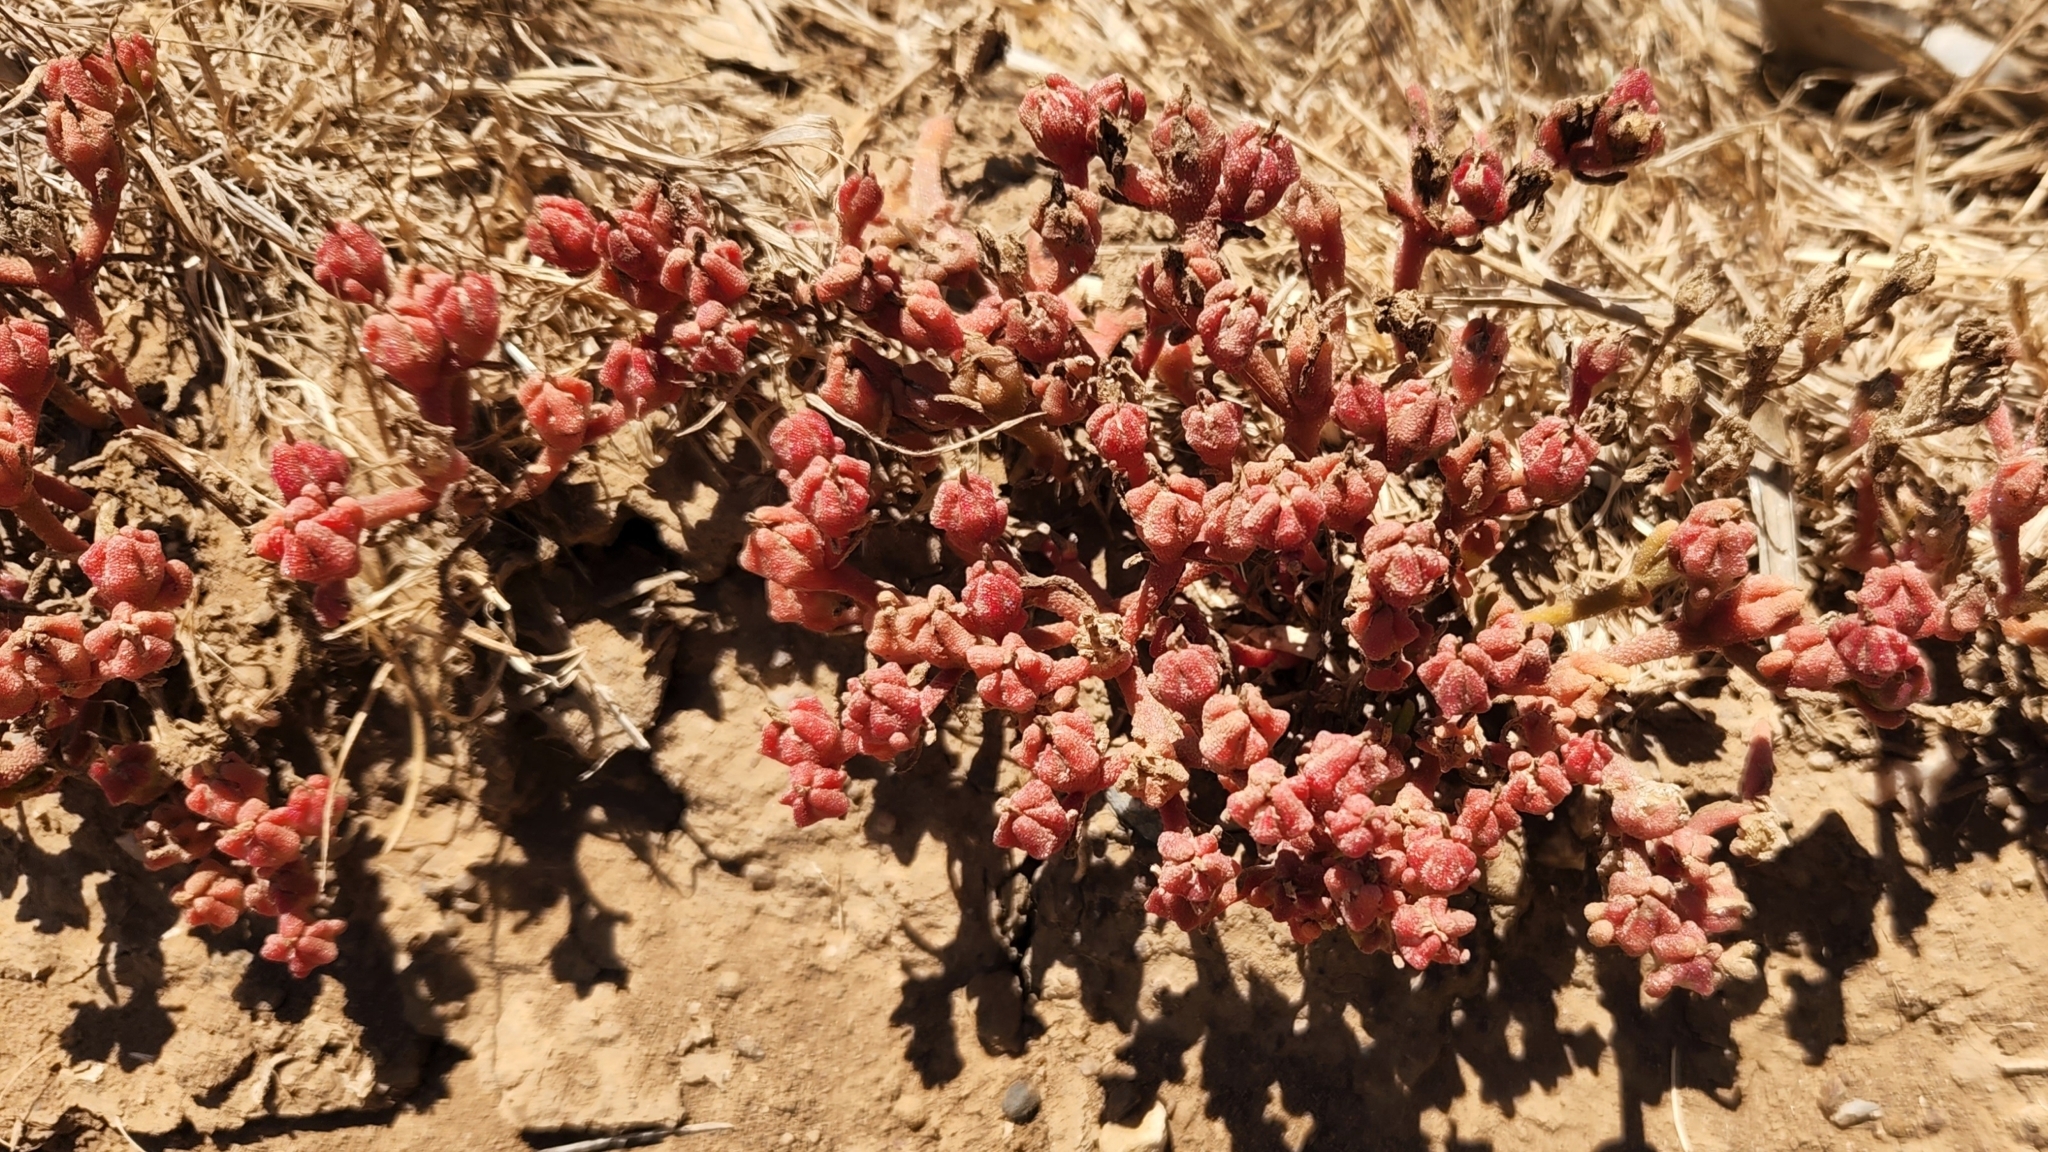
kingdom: Plantae
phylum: Tracheophyta
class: Magnoliopsida
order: Caryophyllales
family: Aizoaceae
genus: Mesembryanthemum
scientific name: Mesembryanthemum nodiflorum
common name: Slenderleaf iceplant
